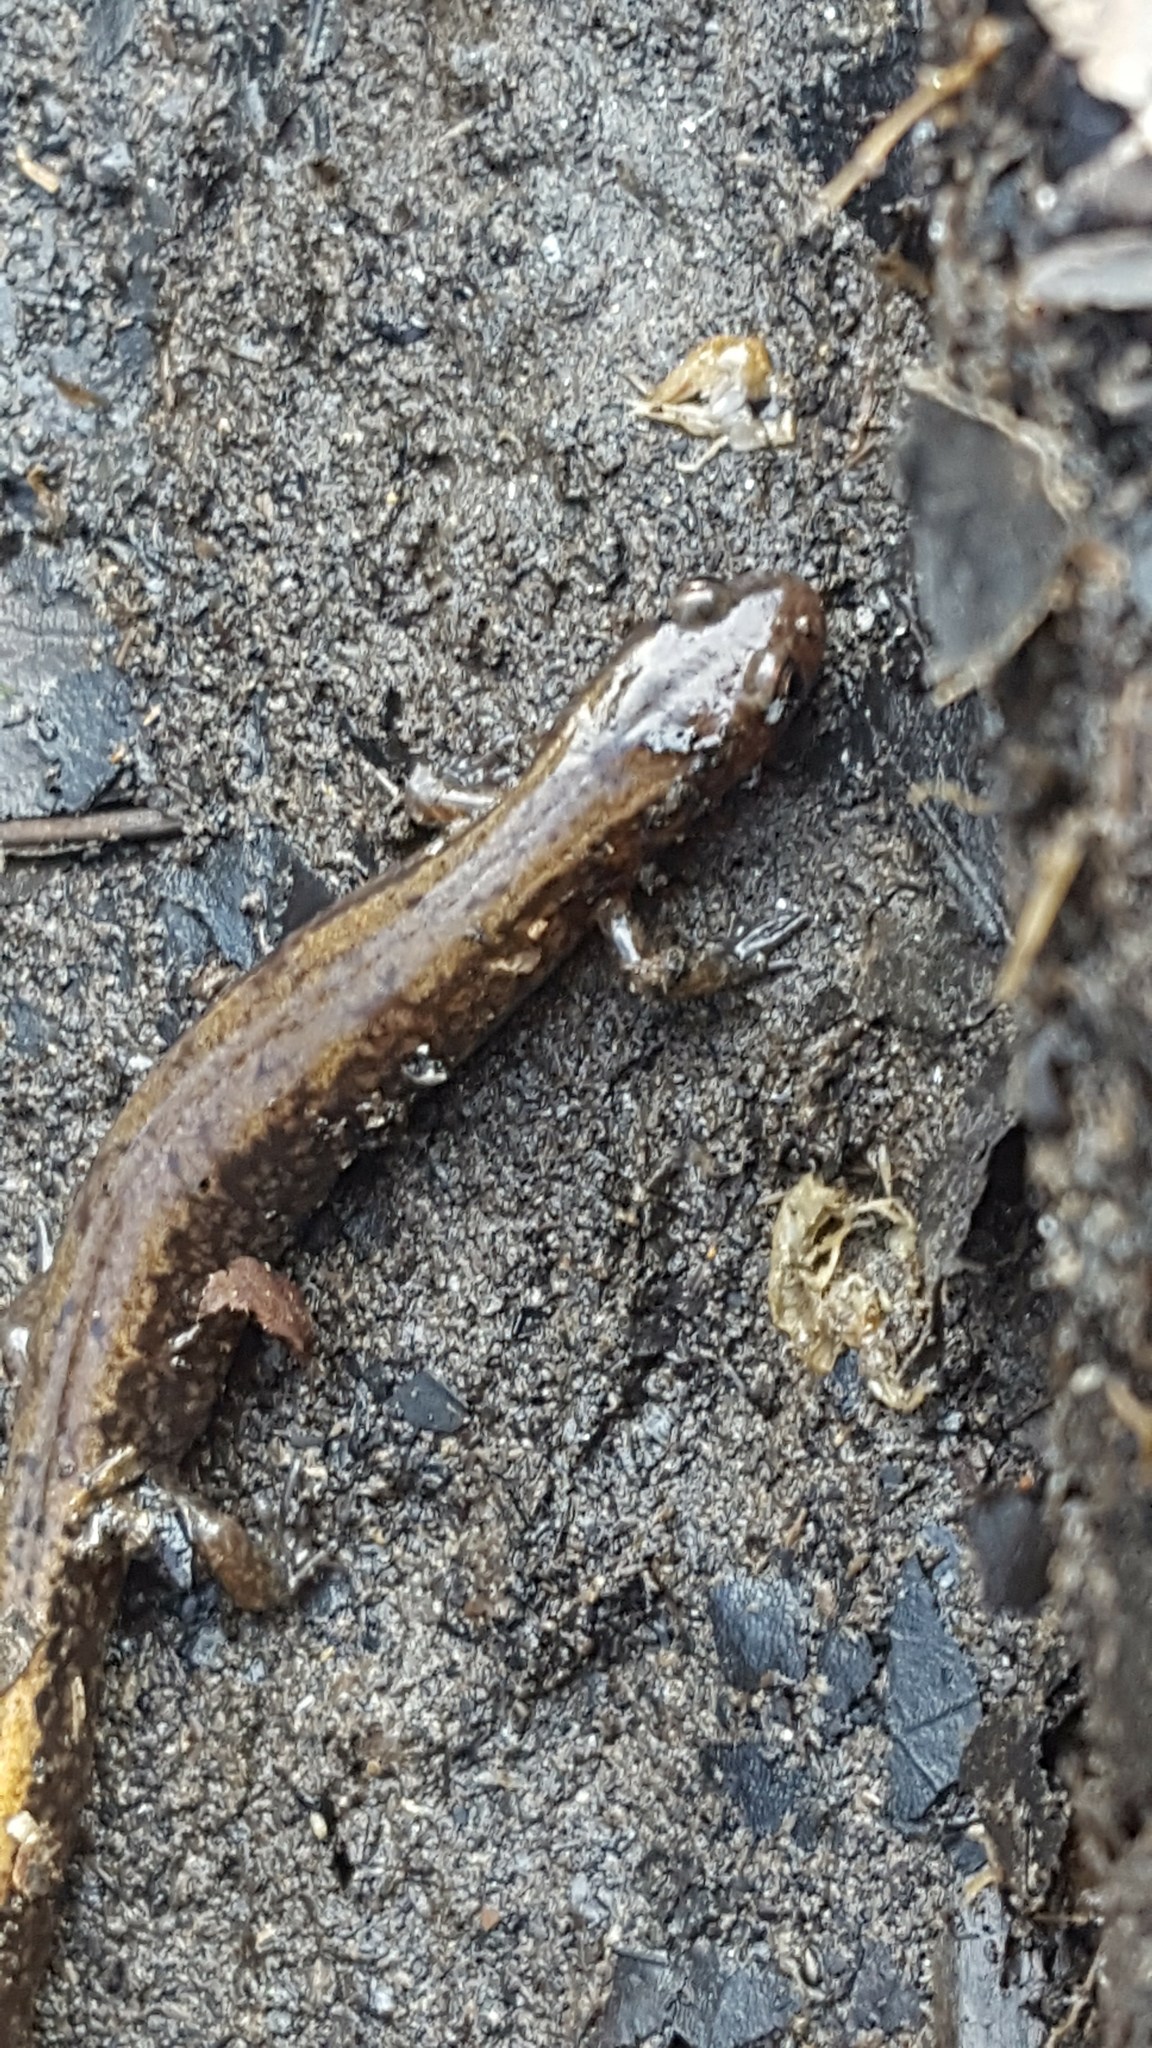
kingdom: Animalia
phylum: Chordata
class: Amphibia
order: Caudata
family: Plethodontidae
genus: Eurycea
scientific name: Eurycea bislineata
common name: Northern two-lined salamander
